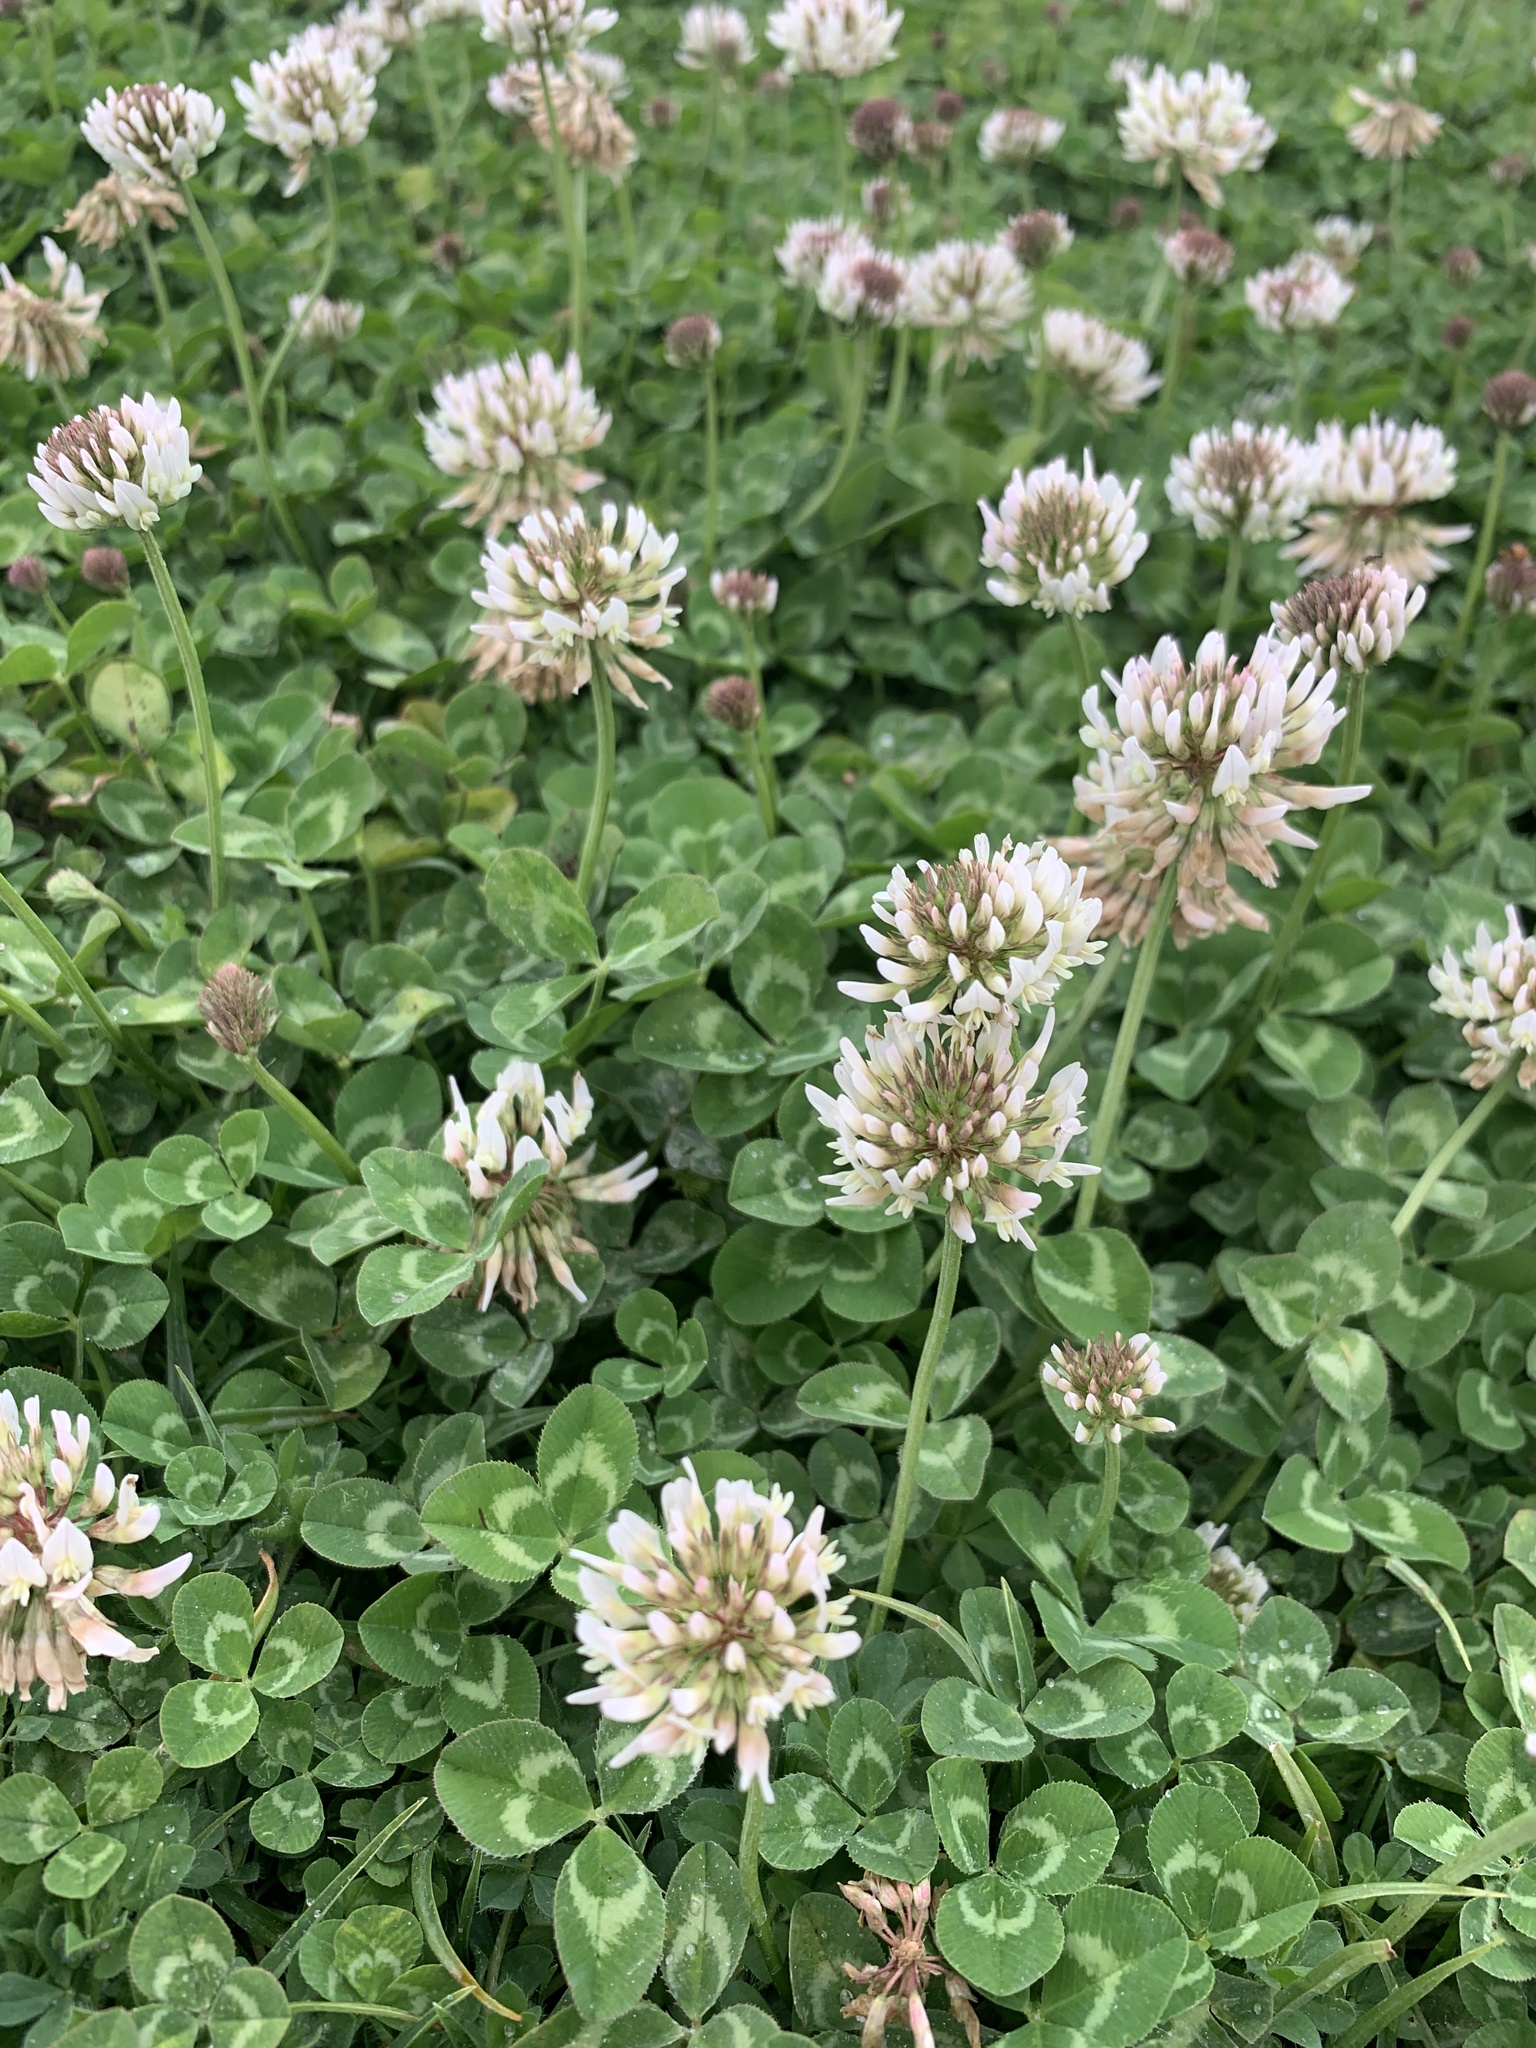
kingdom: Plantae
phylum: Tracheophyta
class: Magnoliopsida
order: Fabales
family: Fabaceae
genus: Trifolium
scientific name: Trifolium repens
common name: White clover
